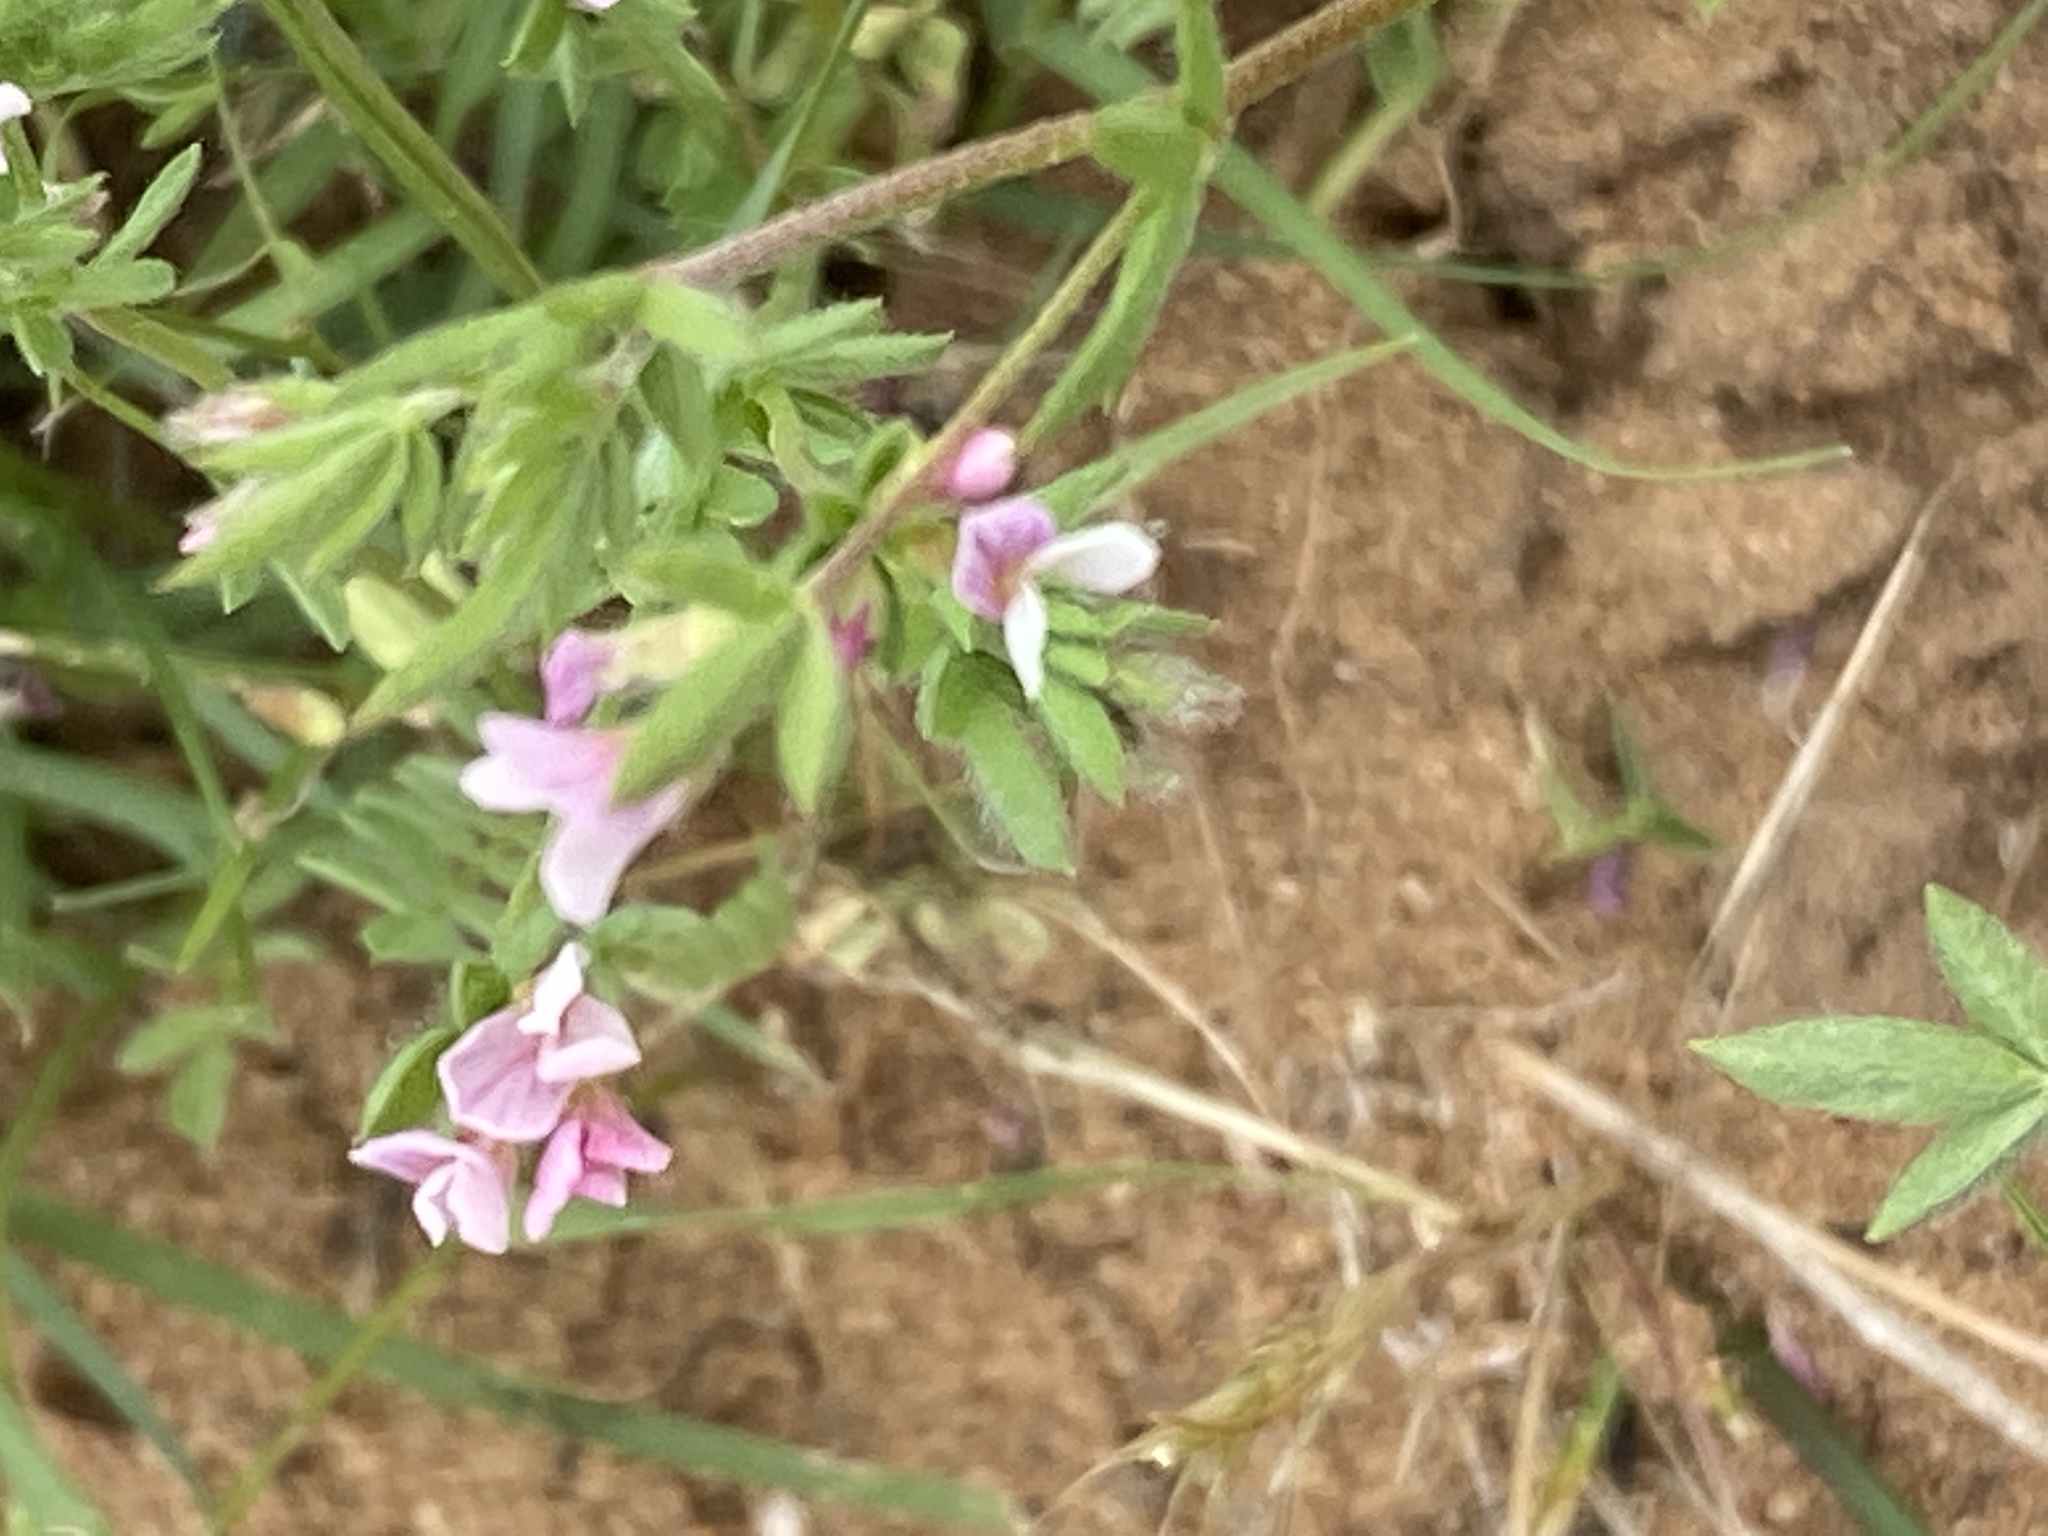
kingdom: Plantae
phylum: Tracheophyta
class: Magnoliopsida
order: Fabales
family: Fabaceae
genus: Ornithopus
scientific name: Ornithopus sativus
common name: Serradella
